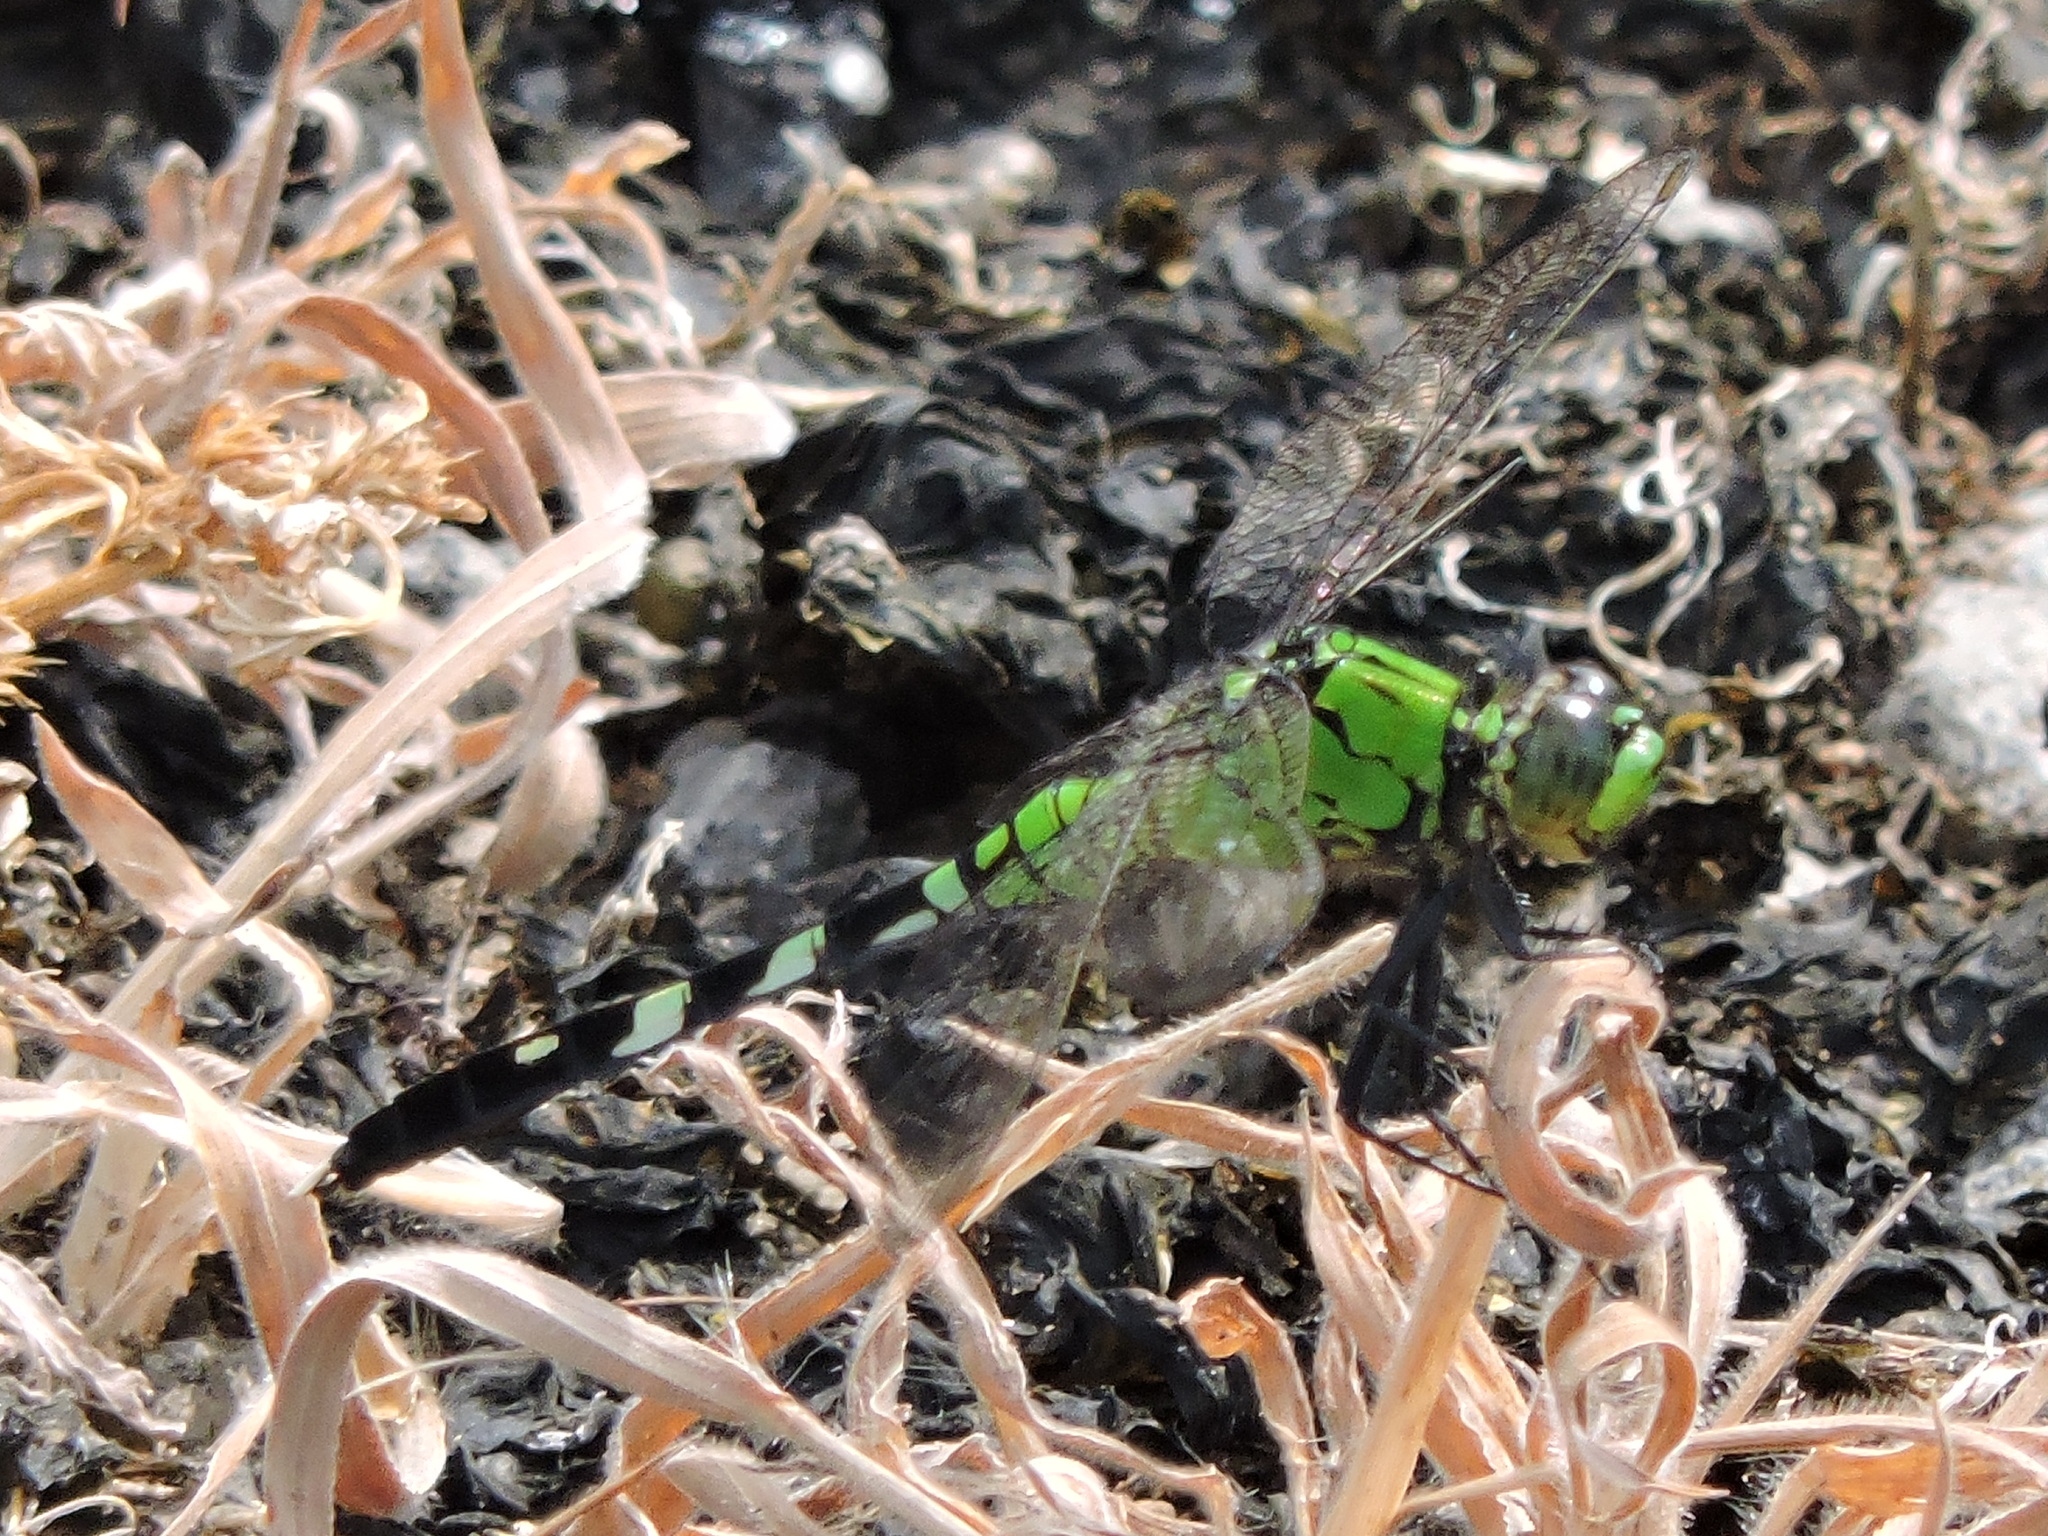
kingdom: Animalia
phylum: Arthropoda
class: Insecta
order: Odonata
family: Libellulidae
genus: Erythemis
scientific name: Erythemis simplicicollis
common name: Eastern pondhawk
